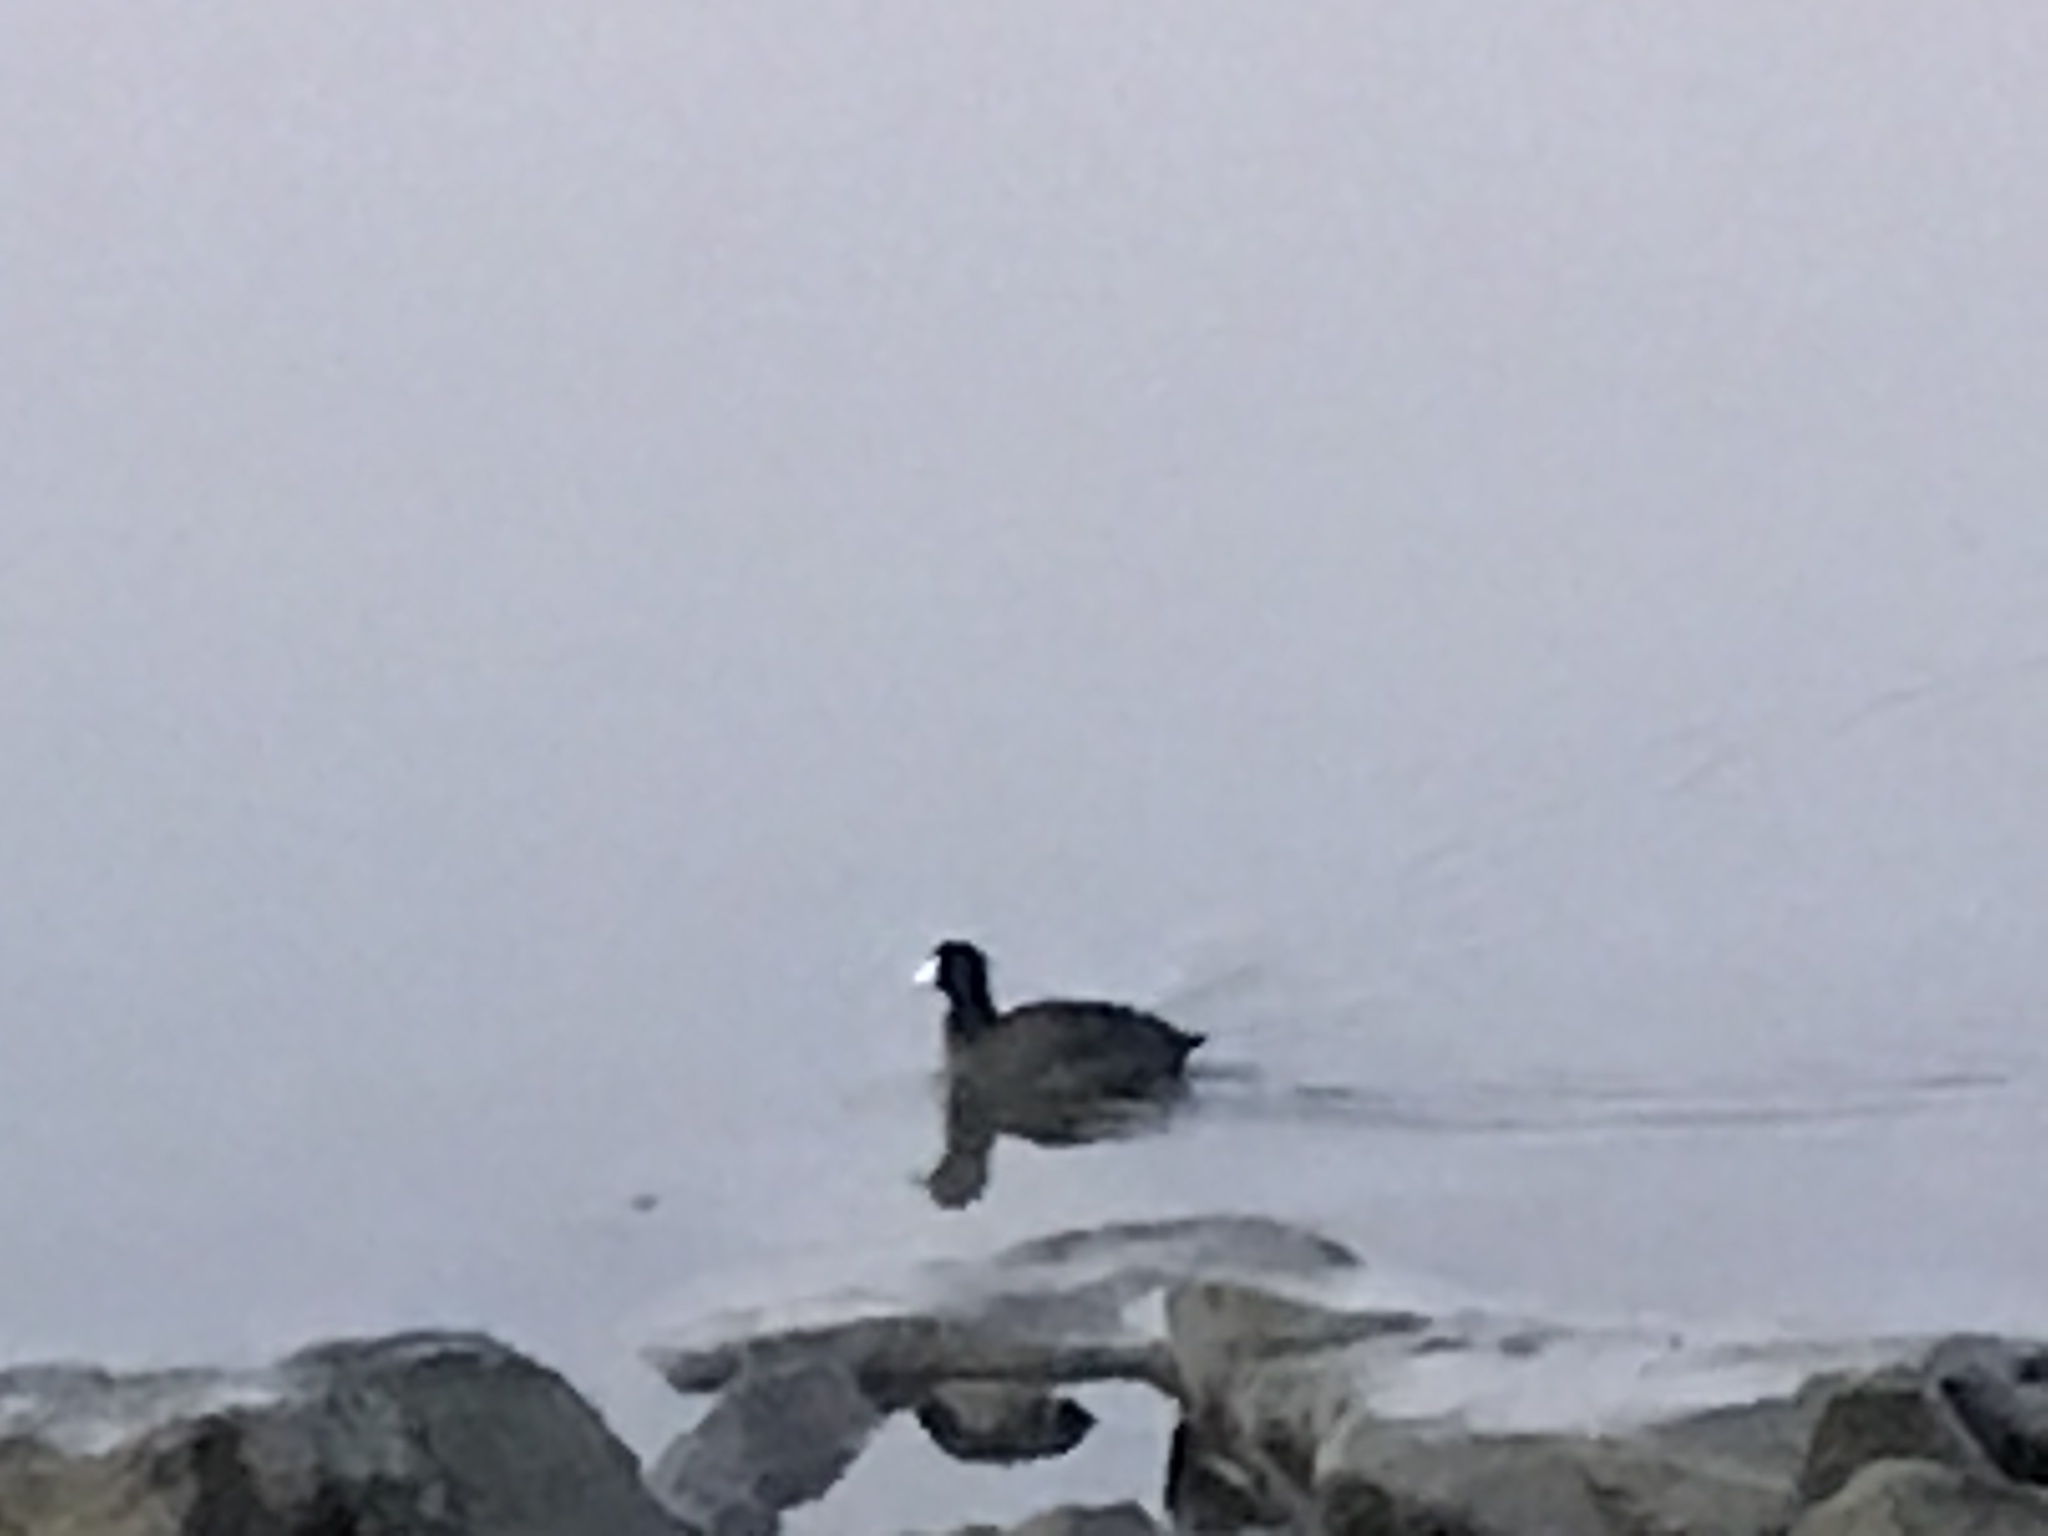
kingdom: Animalia
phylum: Chordata
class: Aves
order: Gruiformes
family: Rallidae
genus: Fulica
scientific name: Fulica americana
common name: American coot
